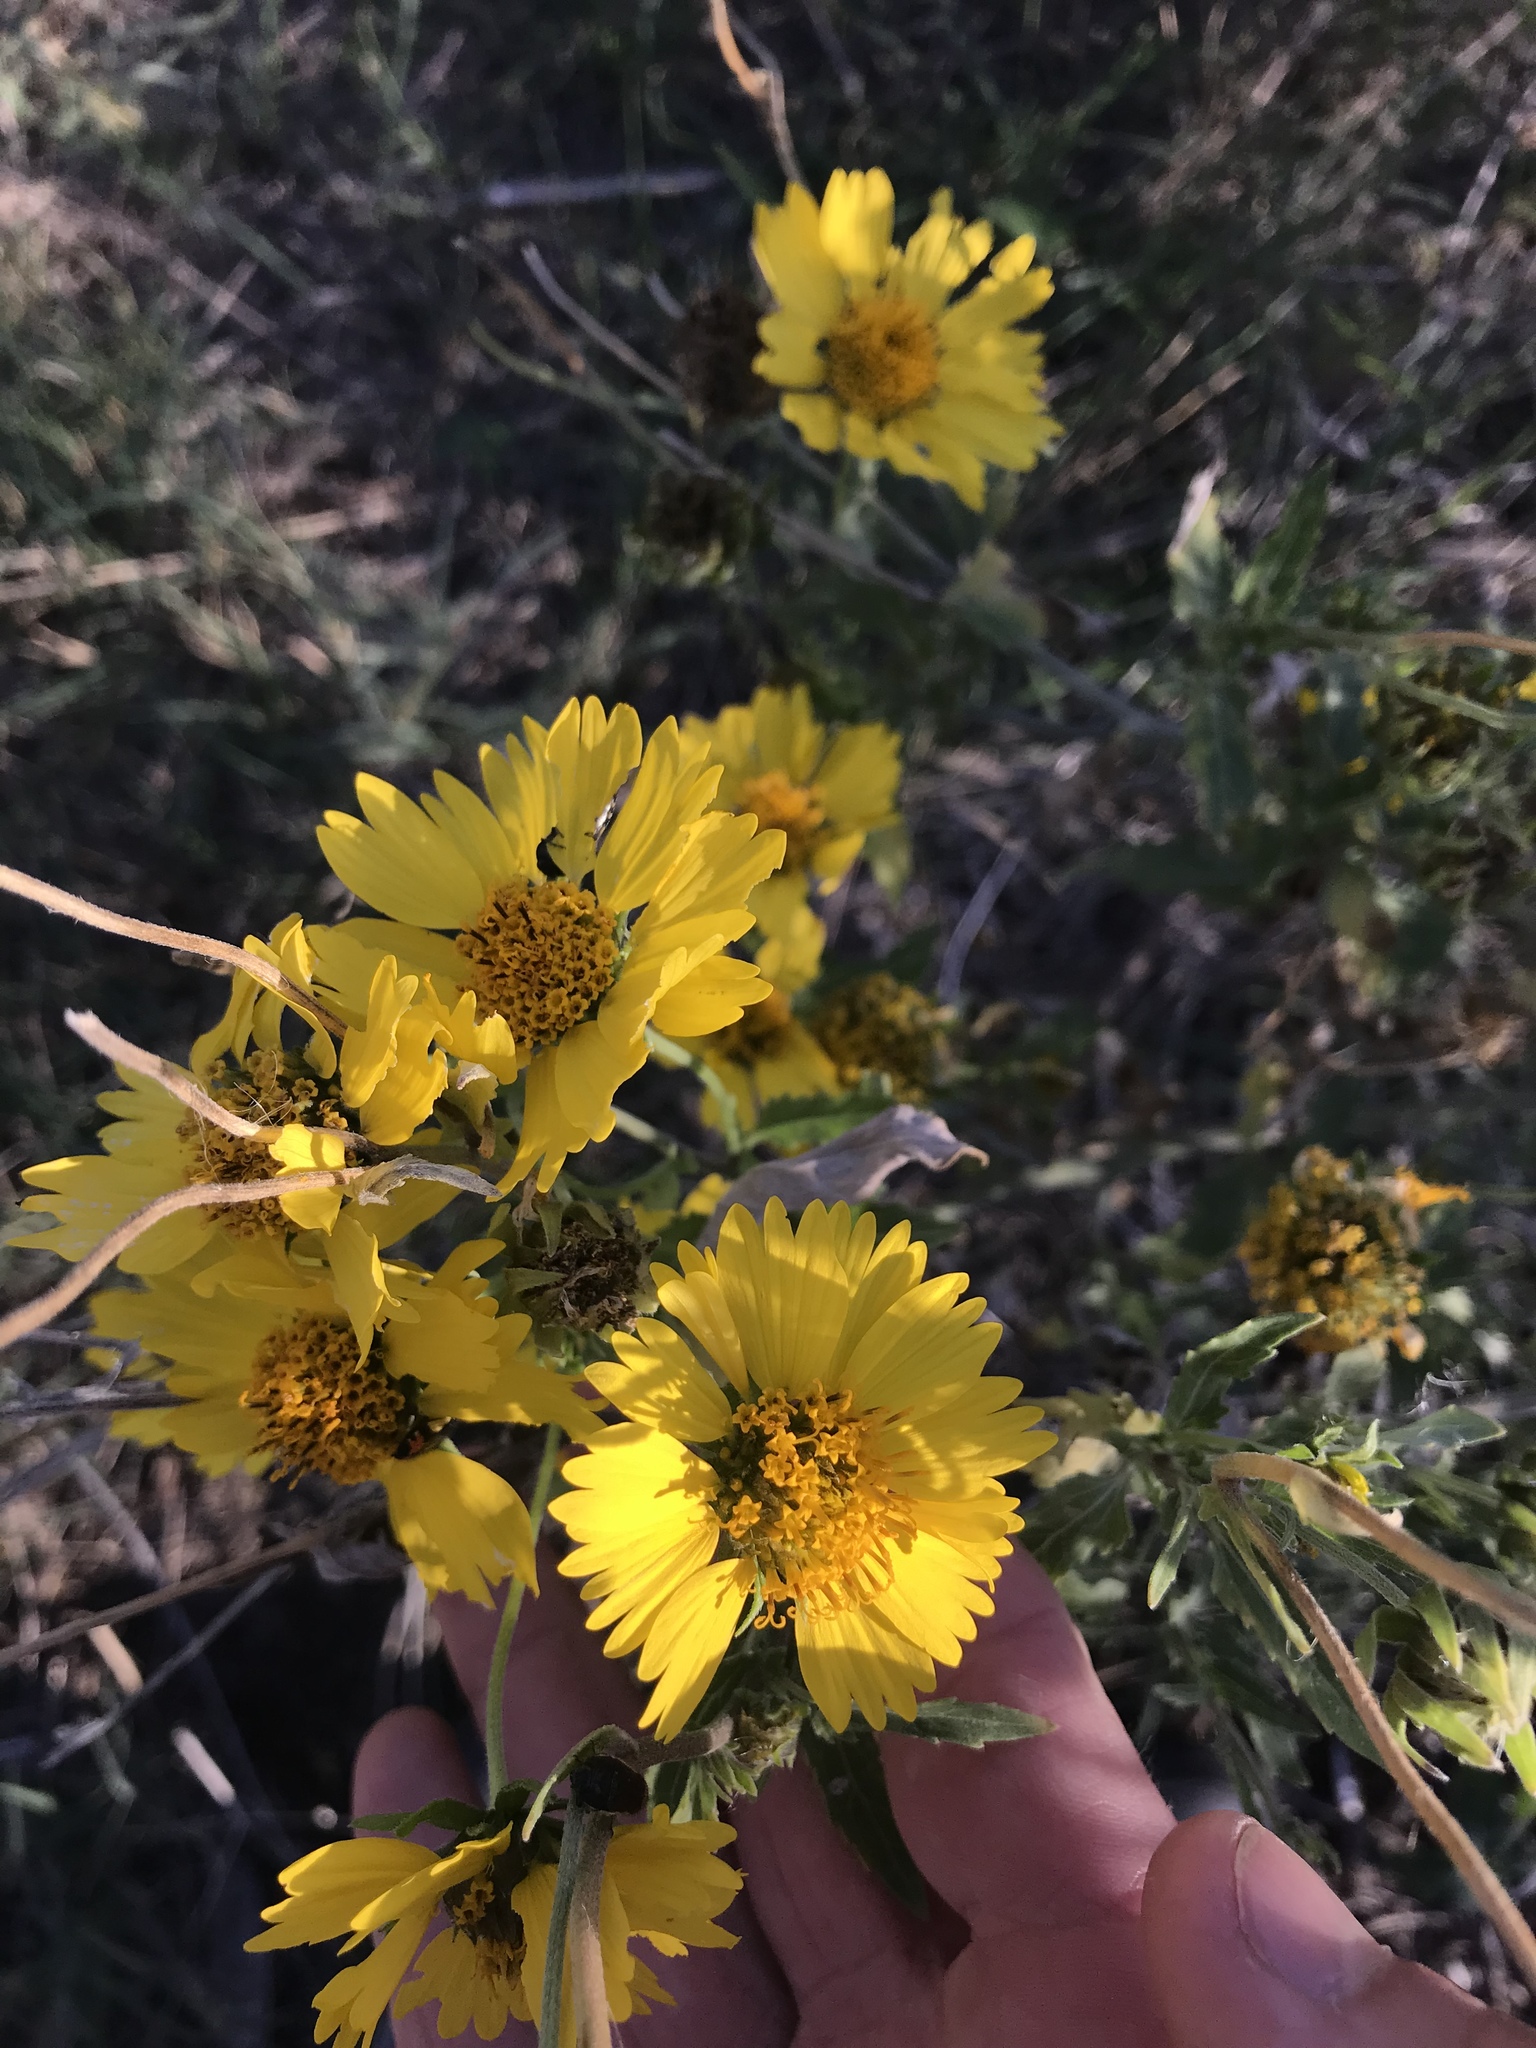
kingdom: Plantae
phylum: Tracheophyta
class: Magnoliopsida
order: Asterales
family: Asteraceae
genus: Verbesina
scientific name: Verbesina encelioides
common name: Golden crownbeard
